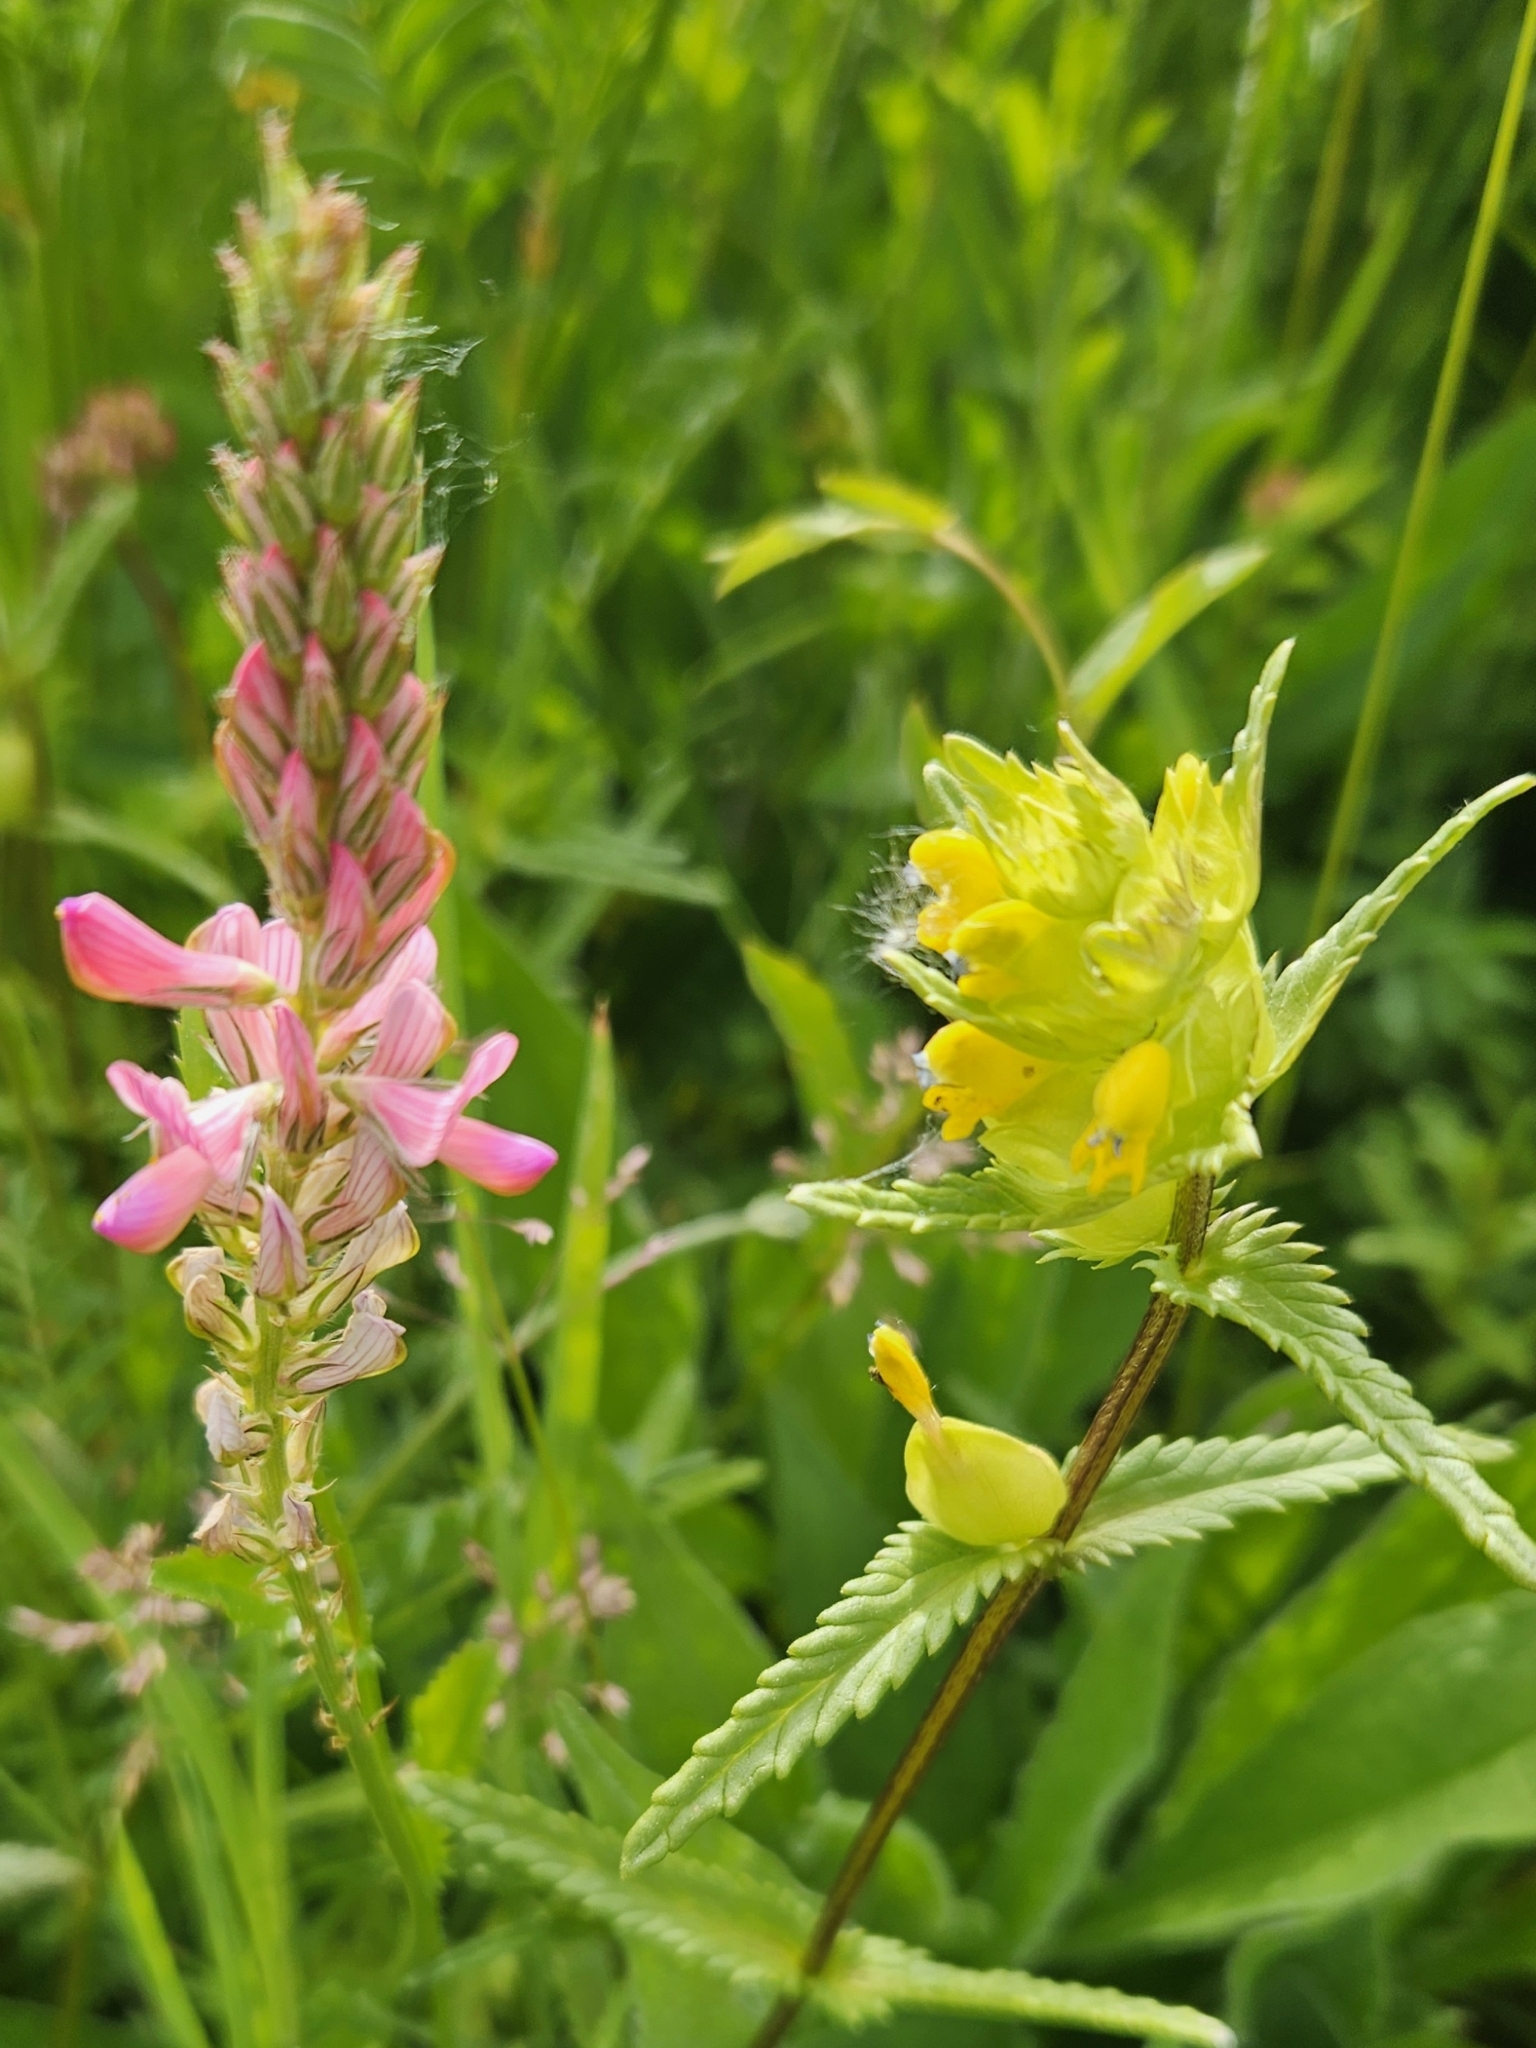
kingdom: Plantae
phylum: Tracheophyta
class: Magnoliopsida
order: Lamiales
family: Orobanchaceae
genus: Rhinanthus
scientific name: Rhinanthus minor
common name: Yellow-rattle
